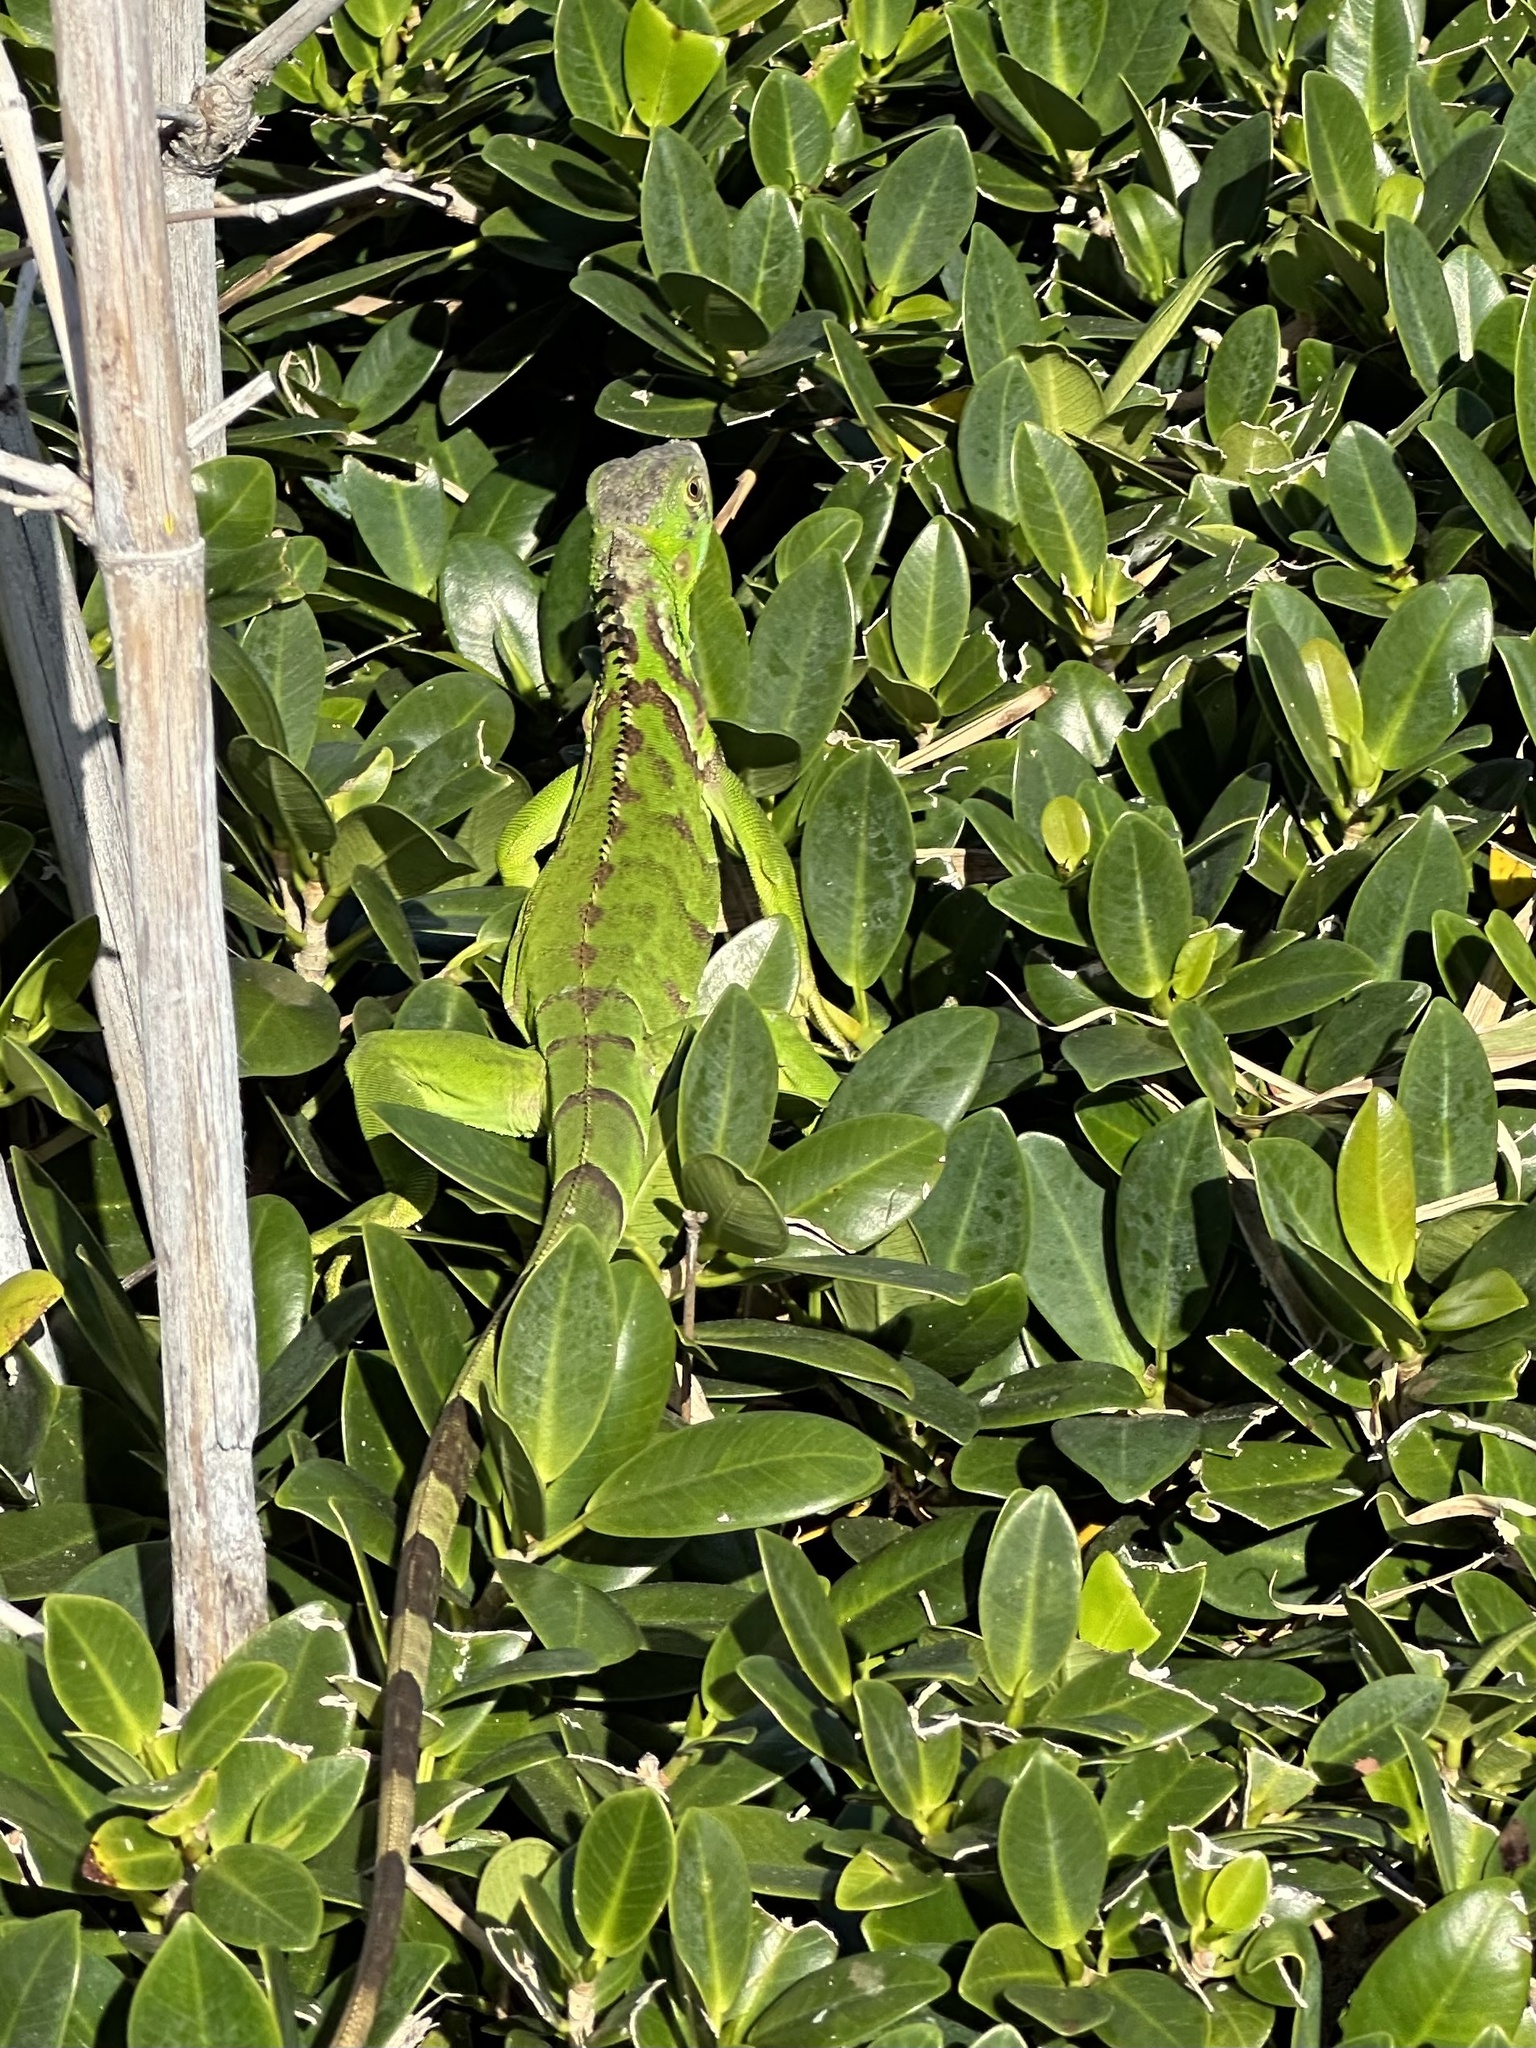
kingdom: Animalia
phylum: Chordata
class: Squamata
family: Iguanidae
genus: Iguana
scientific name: Iguana iguana
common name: Green iguana
